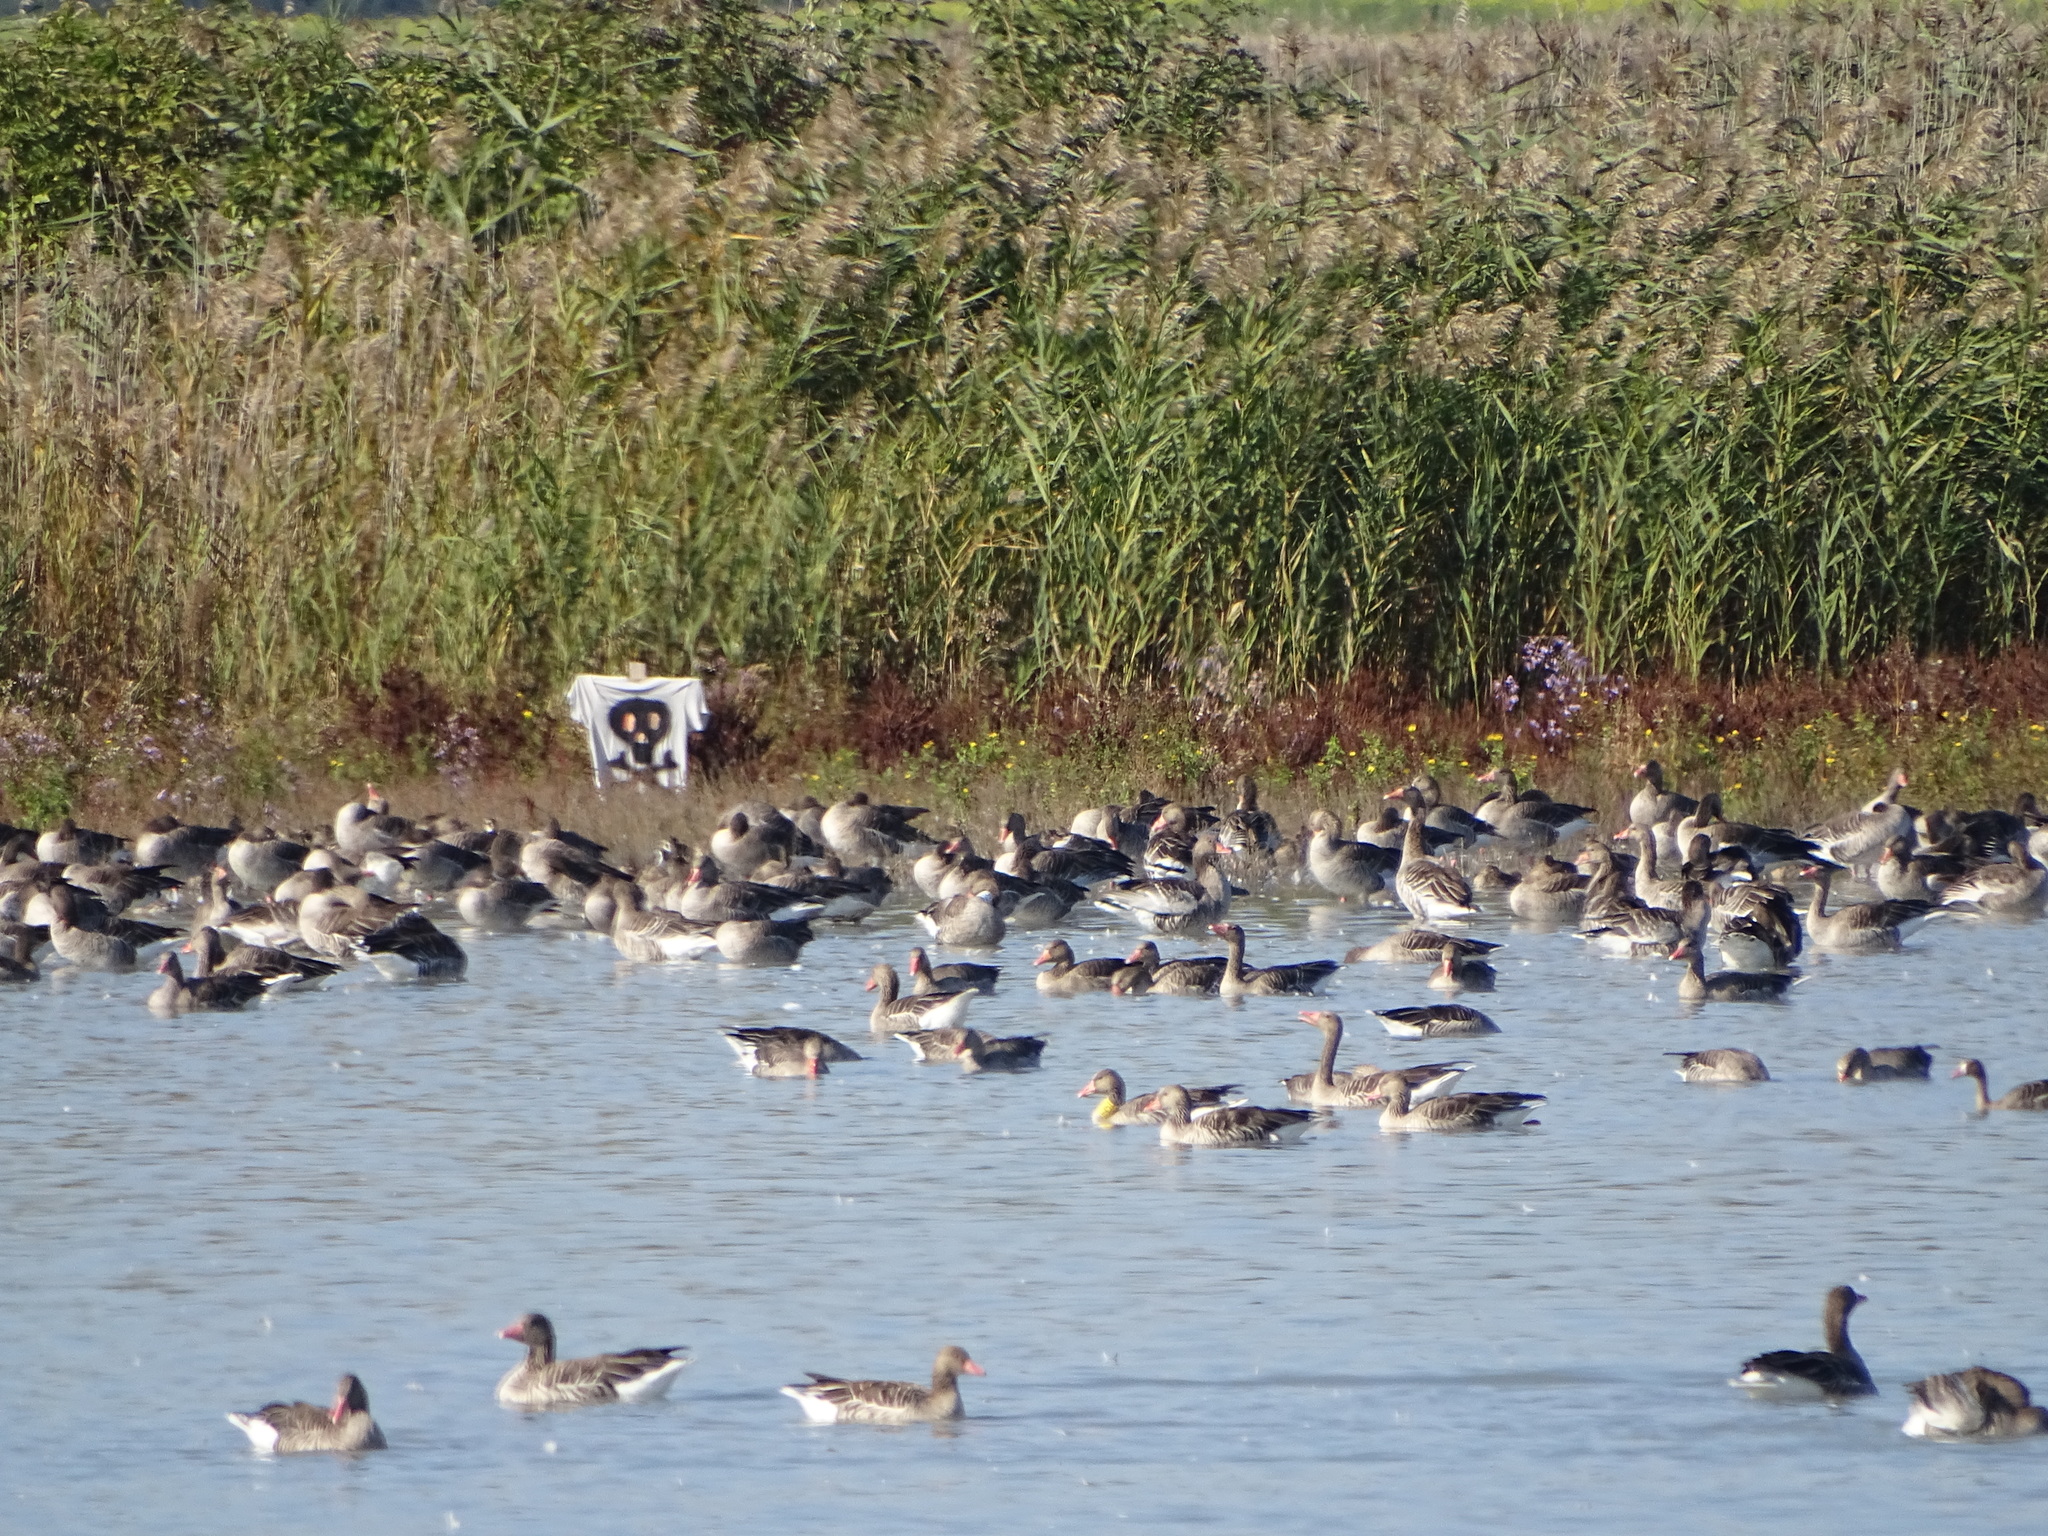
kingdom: Animalia
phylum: Chordata
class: Aves
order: Anseriformes
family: Anatidae
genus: Anser
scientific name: Anser anser
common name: Greylag goose
